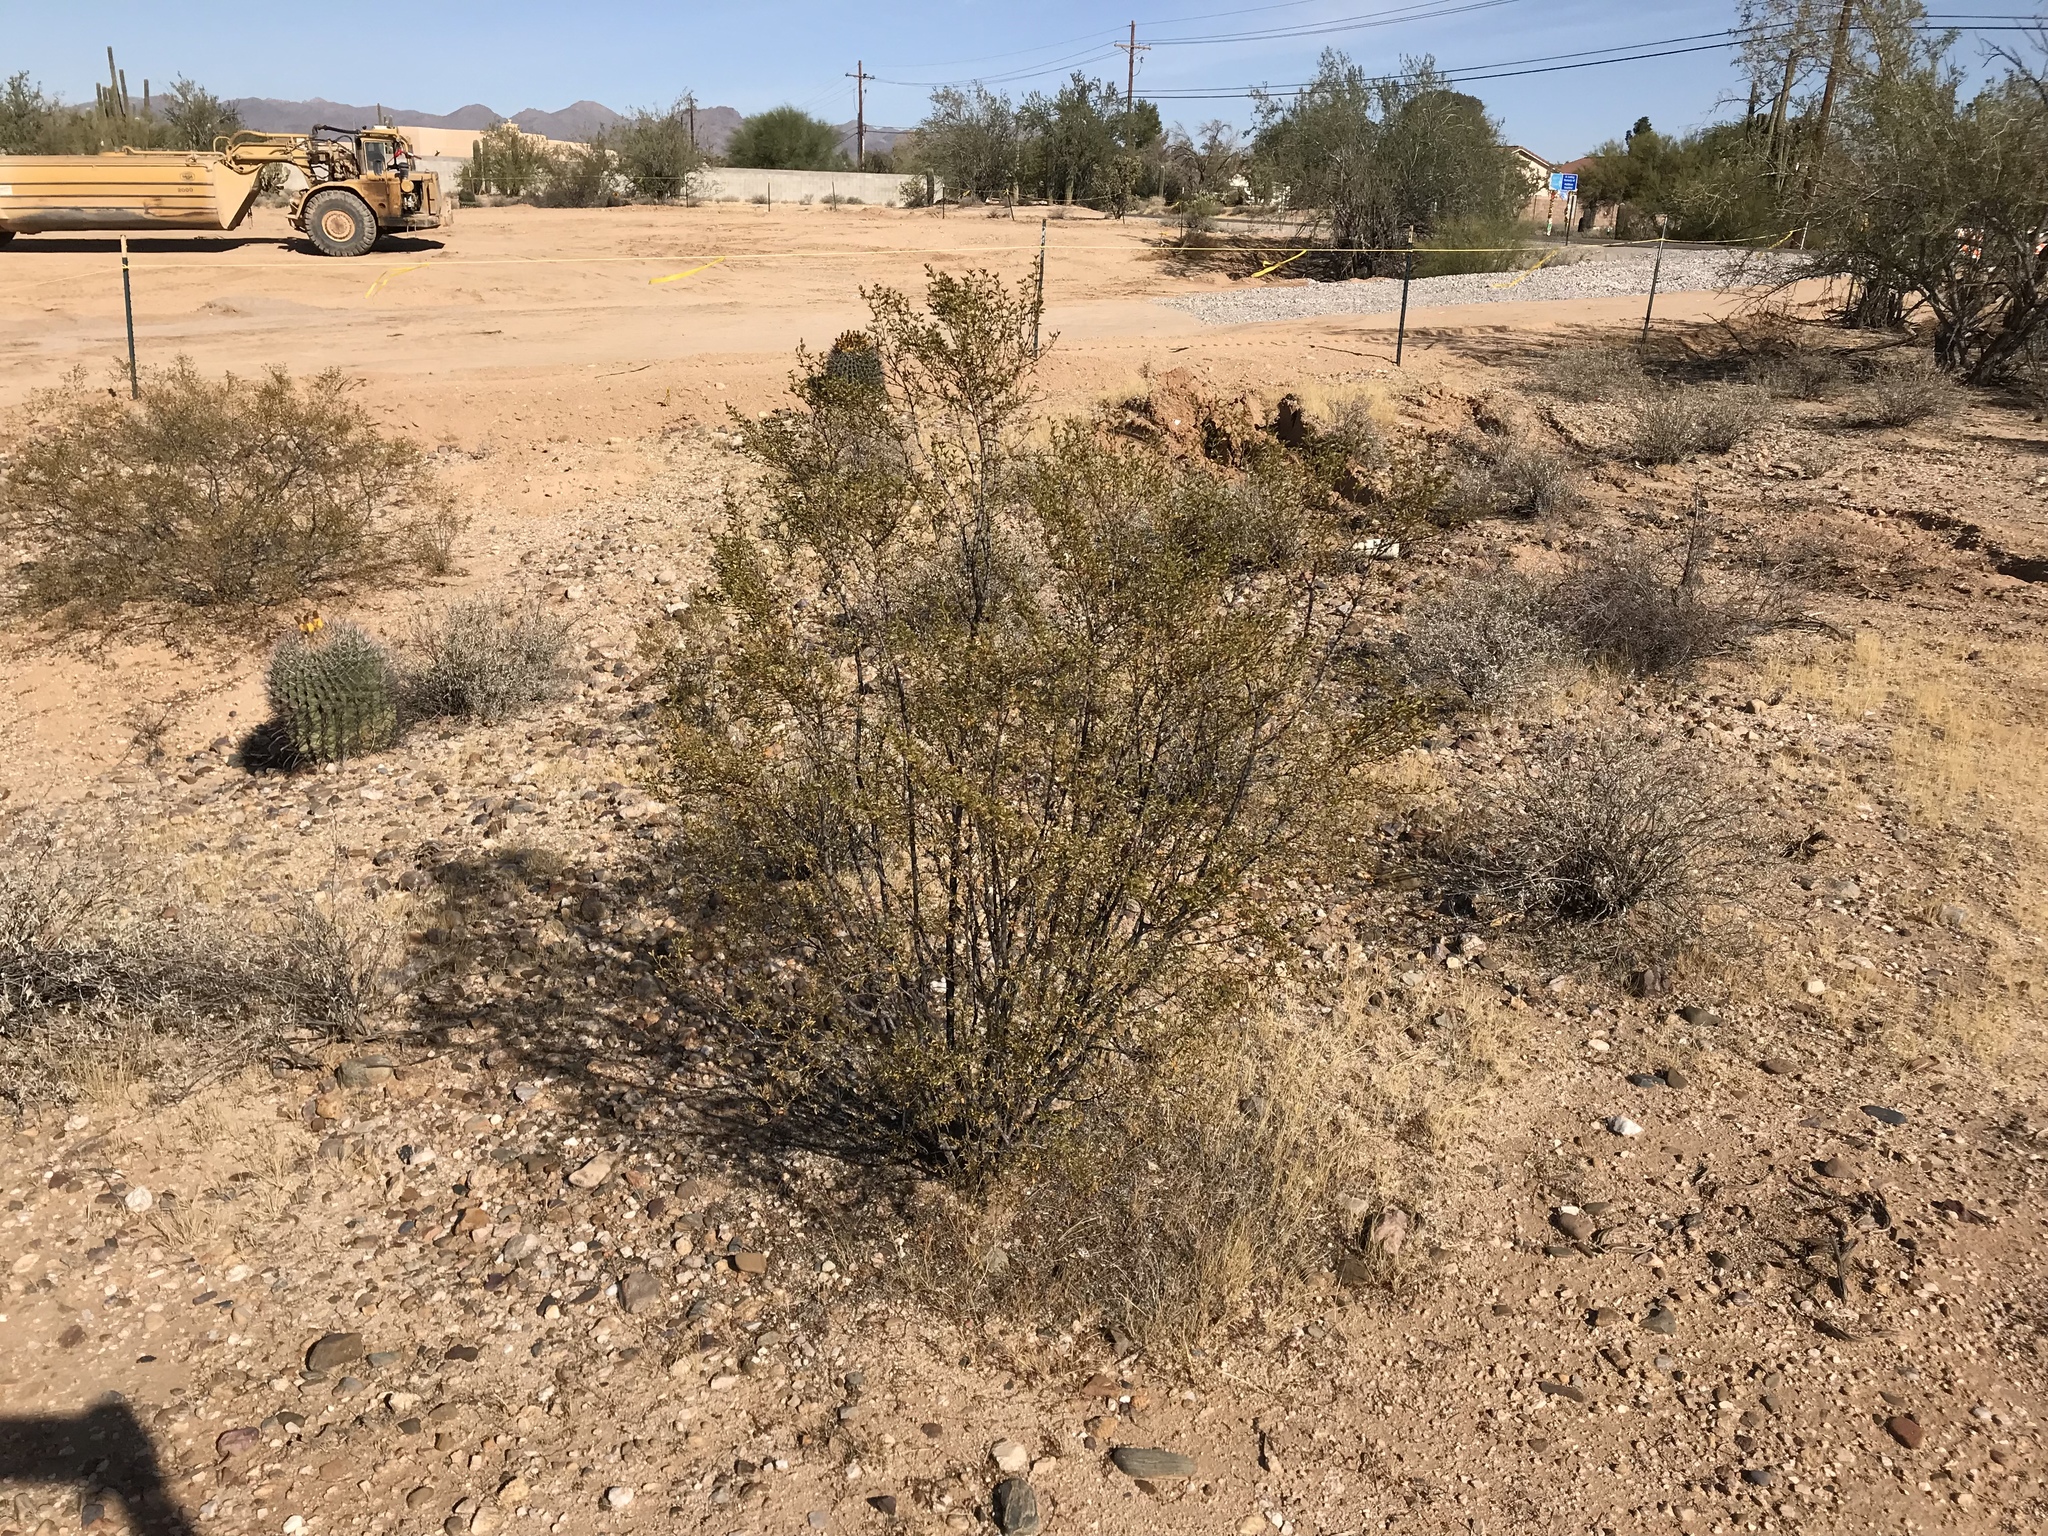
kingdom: Plantae
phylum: Tracheophyta
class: Magnoliopsida
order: Zygophyllales
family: Zygophyllaceae
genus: Larrea
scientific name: Larrea tridentata
